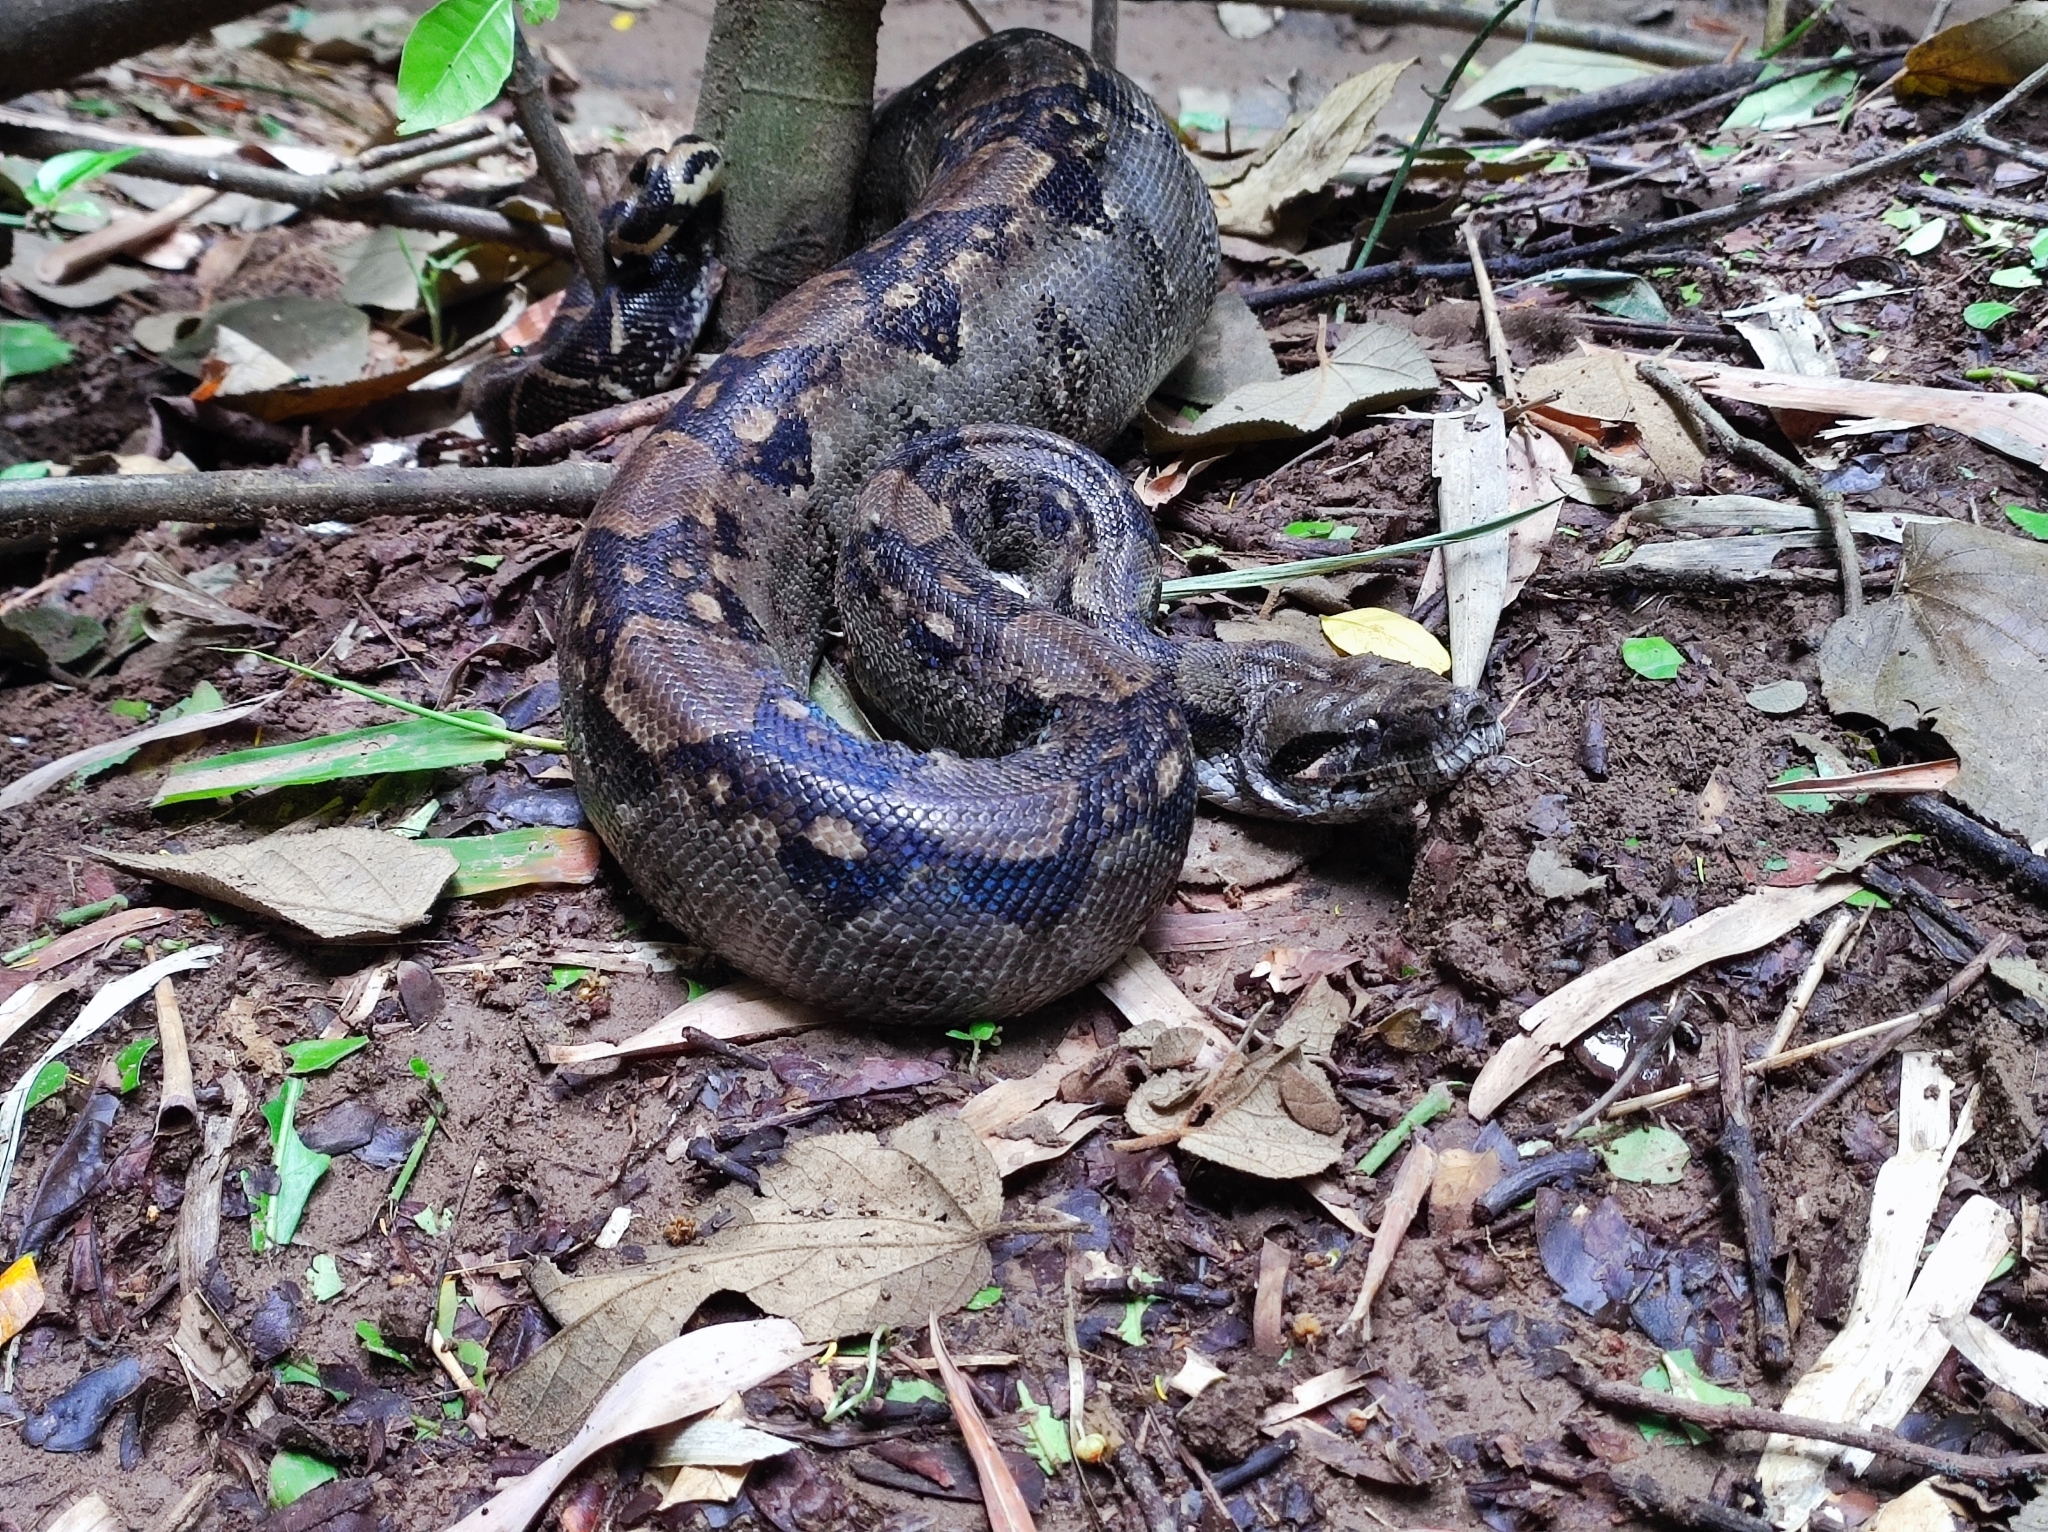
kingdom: Animalia
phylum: Chordata
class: Squamata
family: Boidae
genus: Boa
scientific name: Boa imperator
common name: Central american boa
